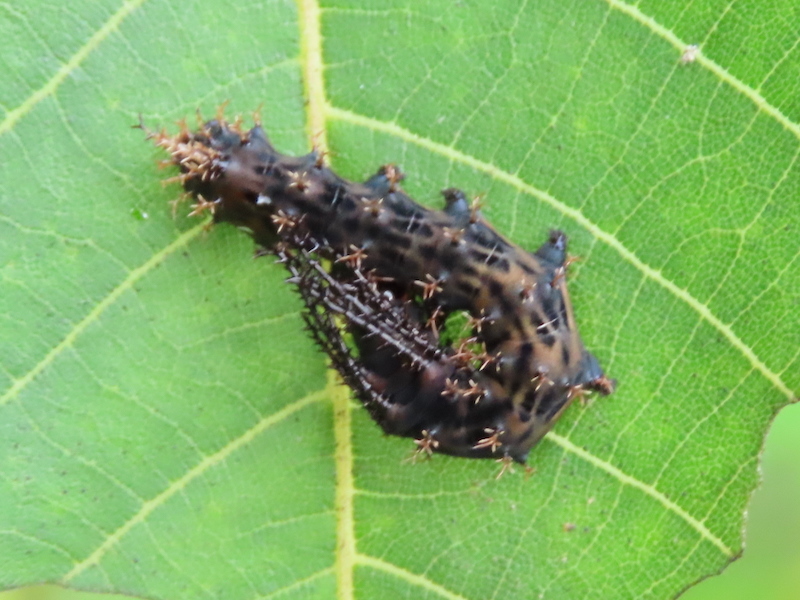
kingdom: Animalia
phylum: Arthropoda
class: Insecta
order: Lepidoptera
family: Saturniidae
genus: Citheronia
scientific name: Citheronia regalis
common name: Hickory horned devil
